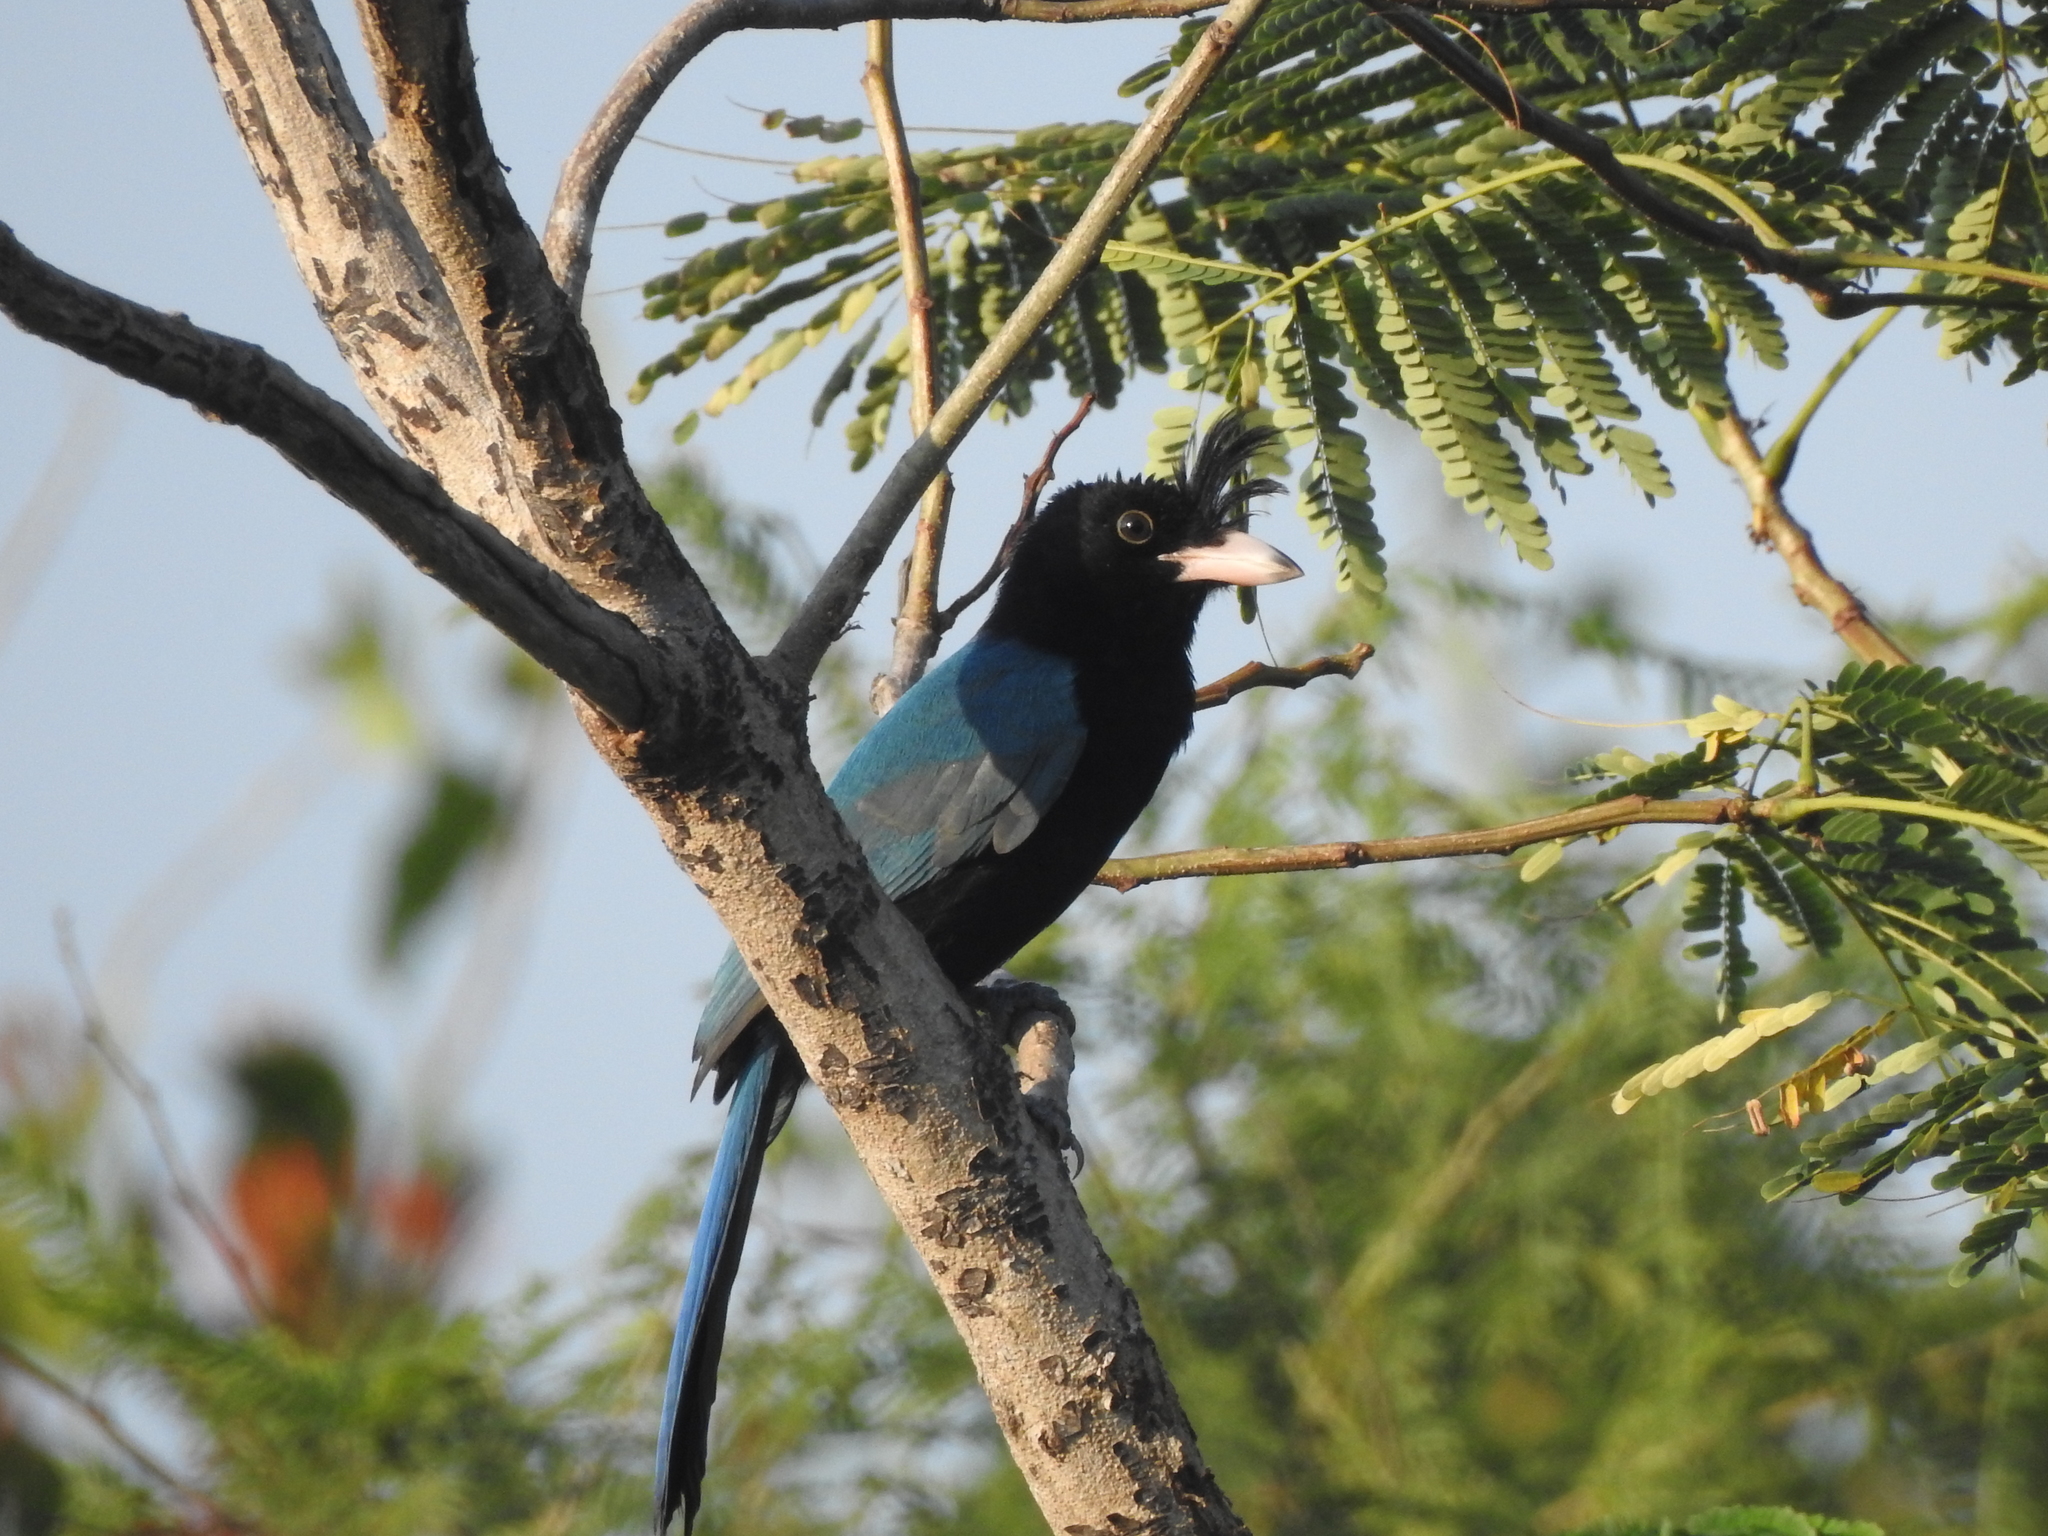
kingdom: Animalia
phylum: Chordata
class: Aves
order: Passeriformes
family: Corvidae
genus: Cyanocorax
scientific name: Cyanocorax sanblasianus
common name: San blas jay
